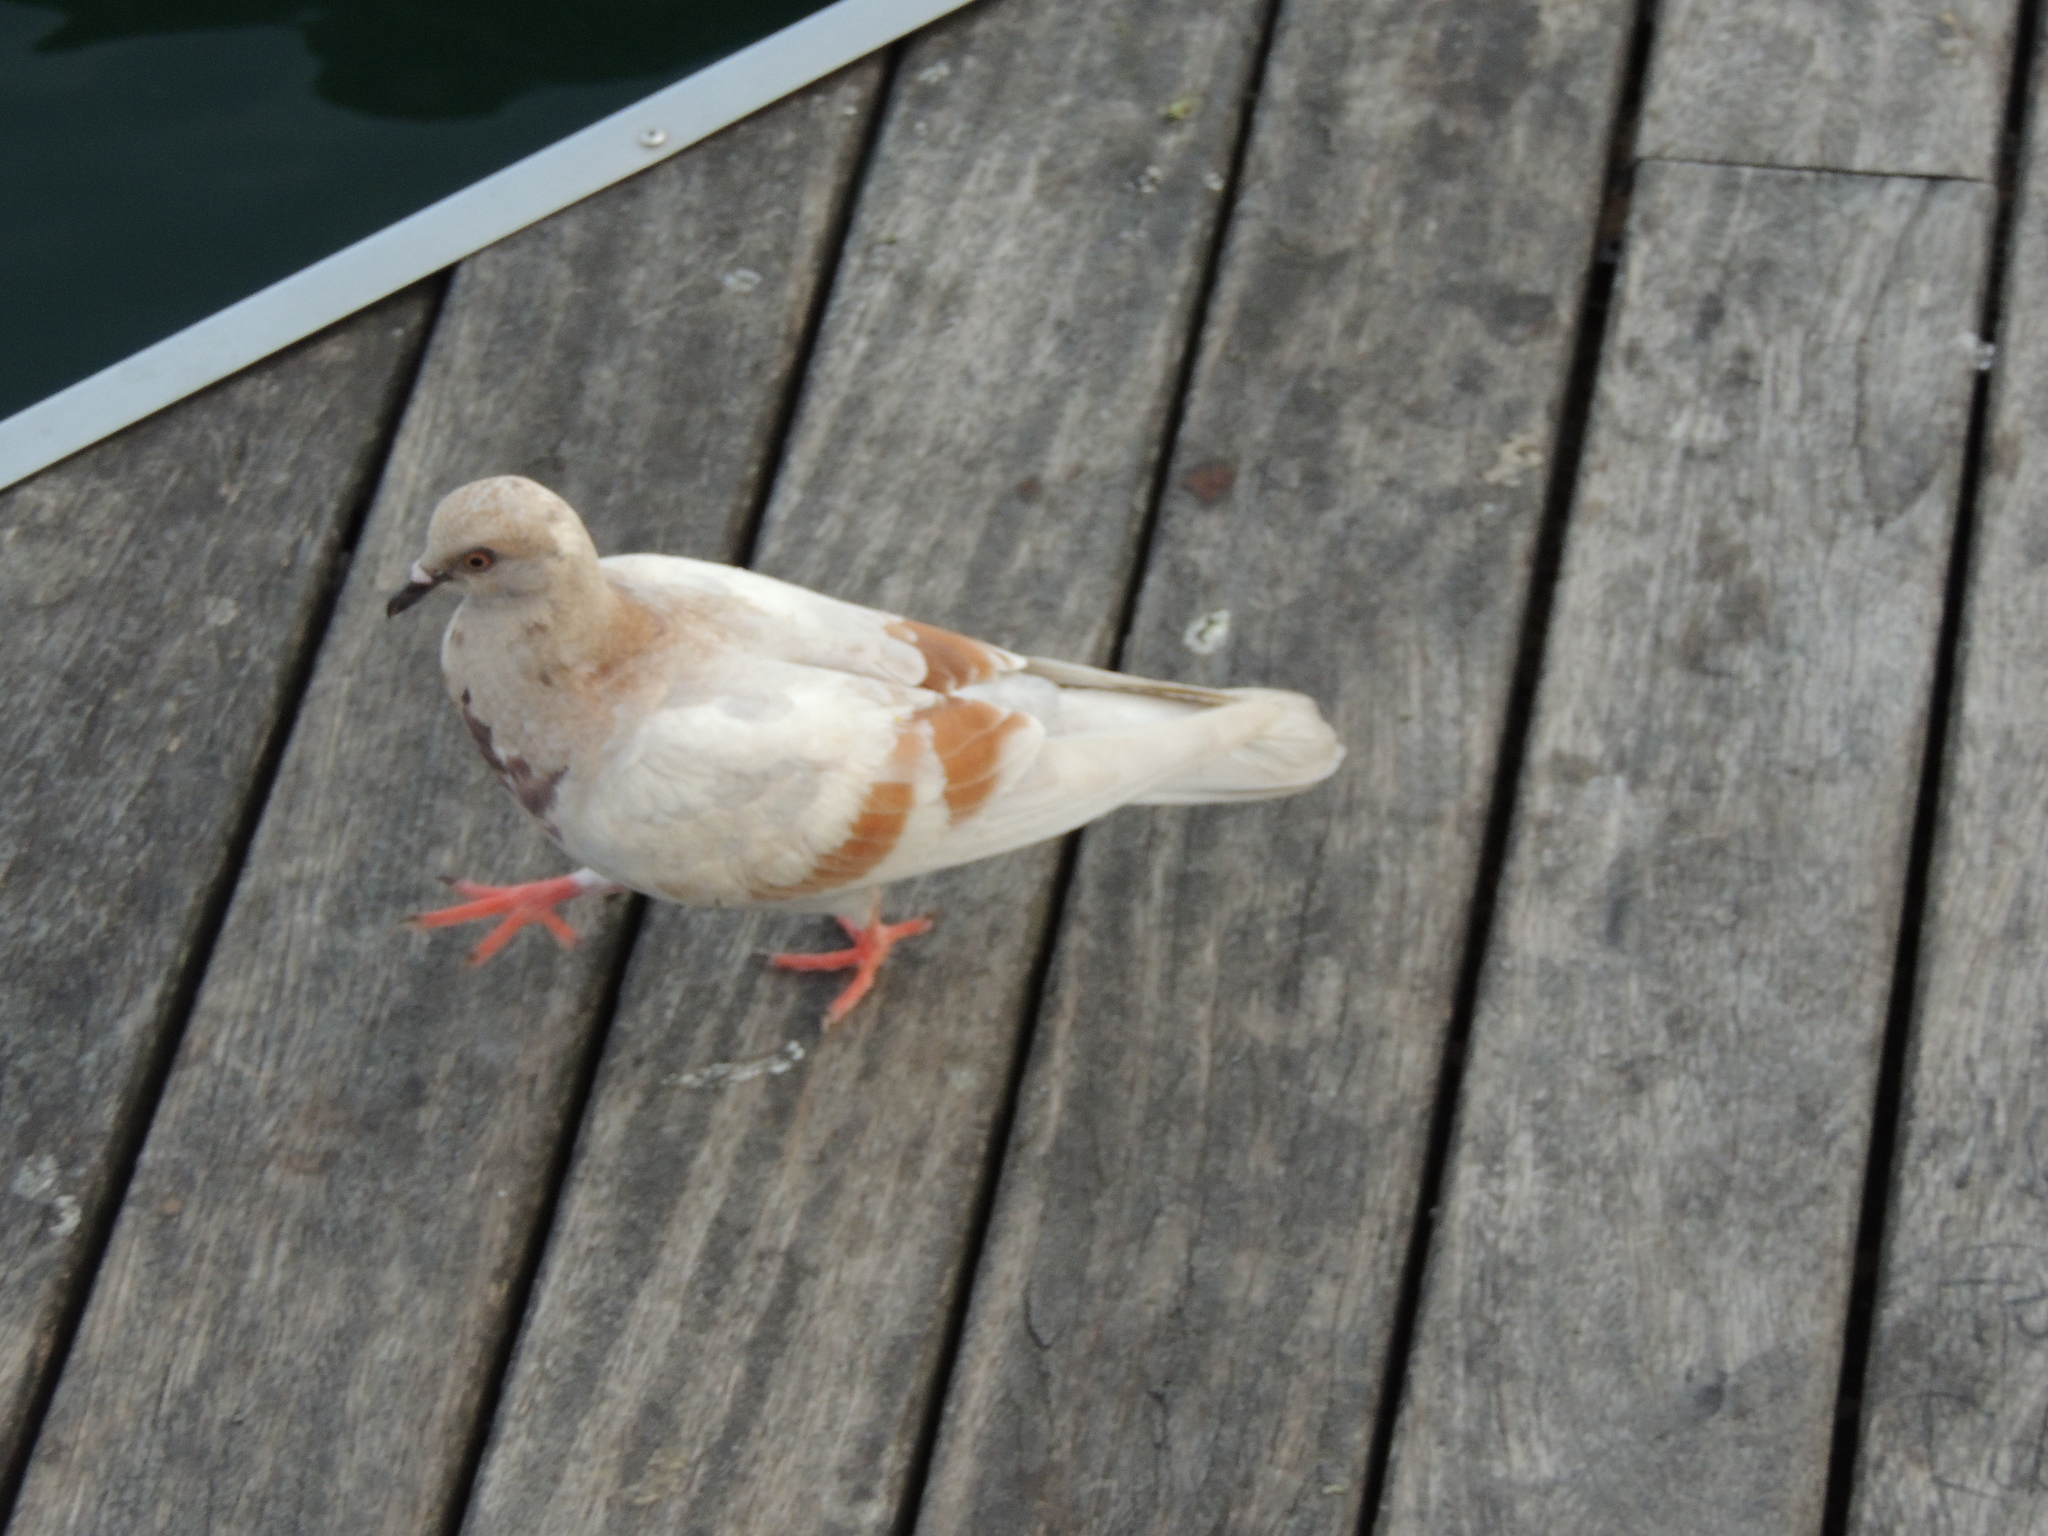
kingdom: Animalia
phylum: Chordata
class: Aves
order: Columbiformes
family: Columbidae
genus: Columba
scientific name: Columba livia
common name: Rock pigeon
